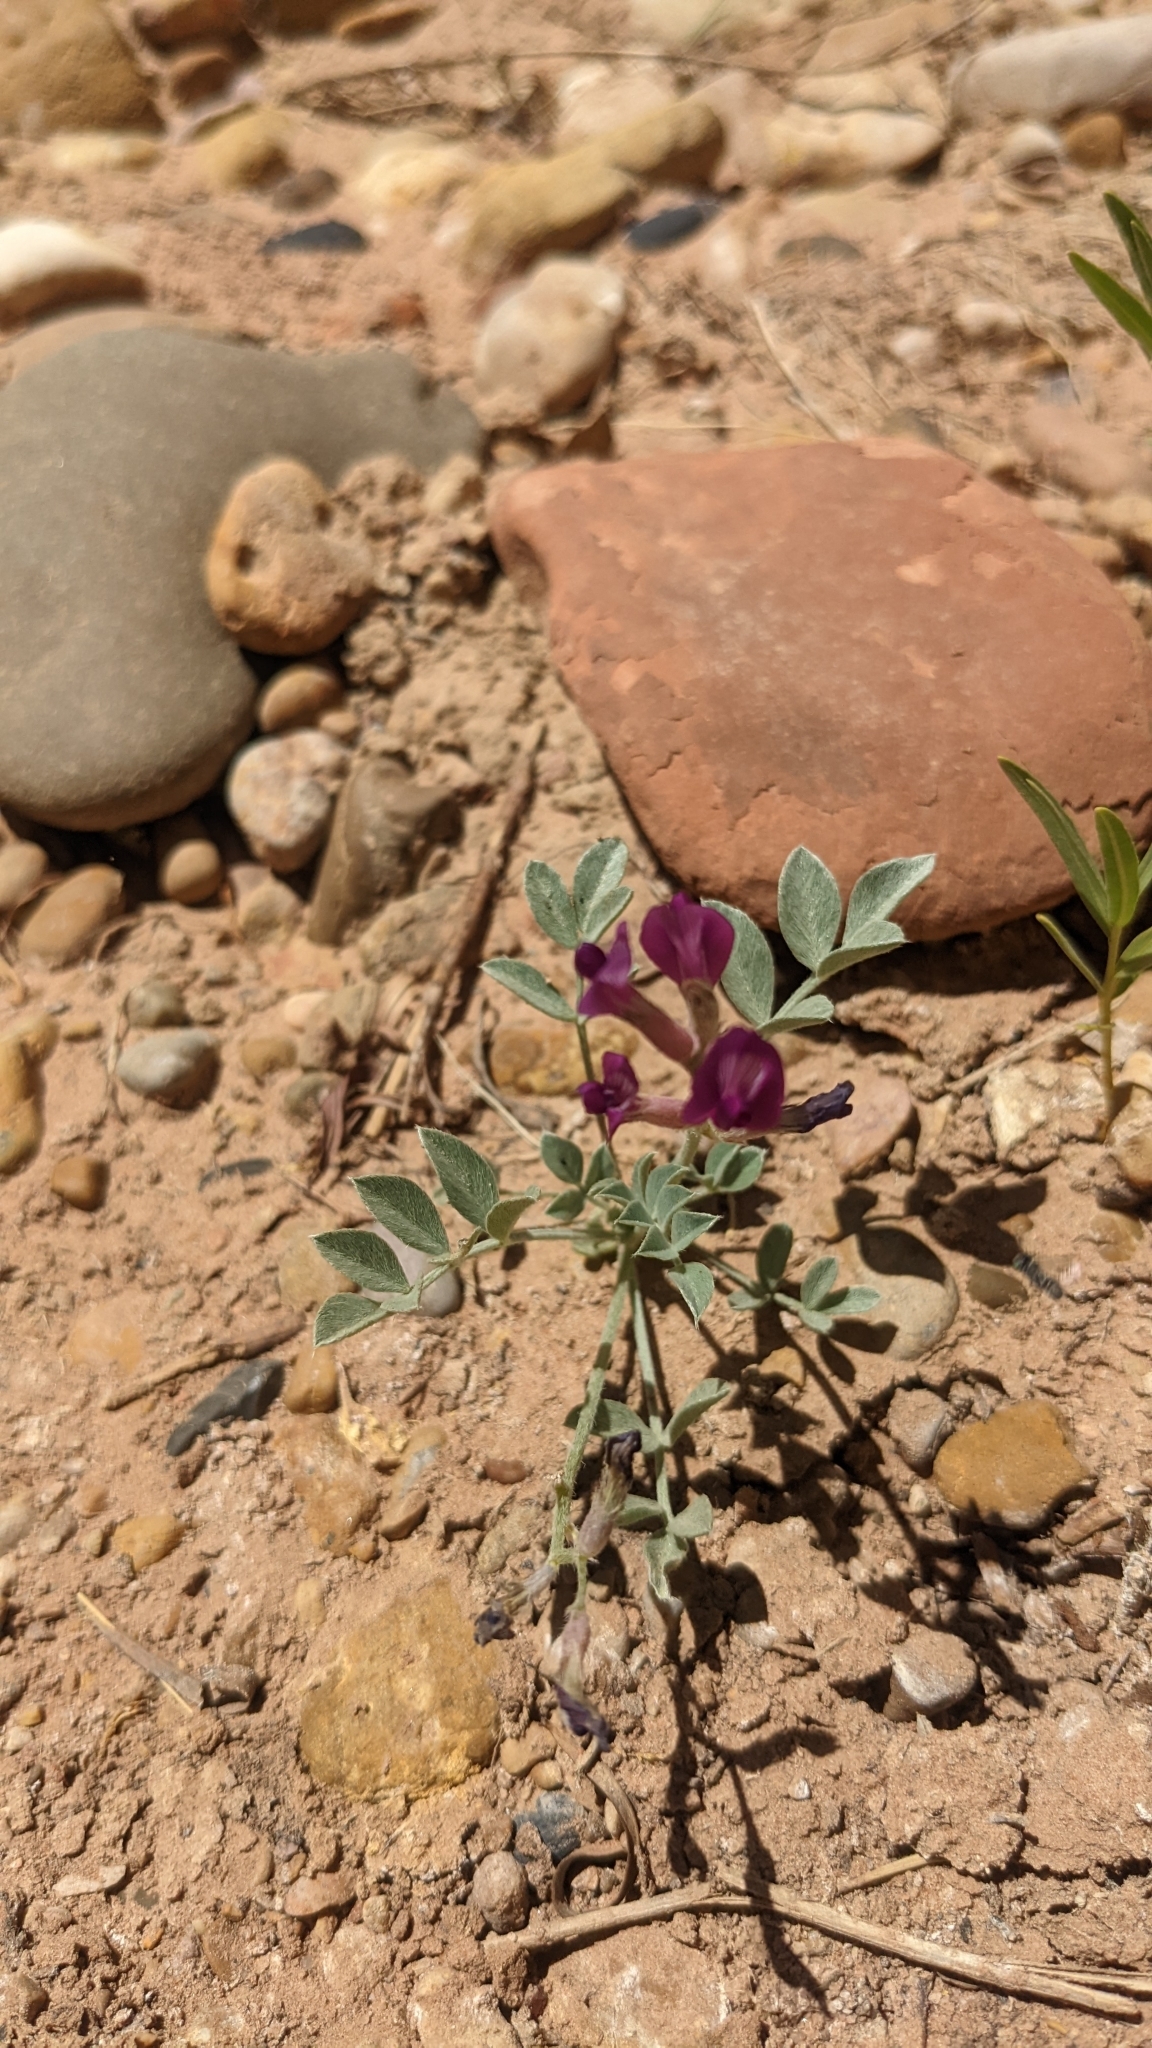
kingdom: Plantae
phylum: Tracheophyta
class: Magnoliopsida
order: Fabales
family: Fabaceae
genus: Astragalus
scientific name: Astragalus amphioxys
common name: Crescent milk-vetch
